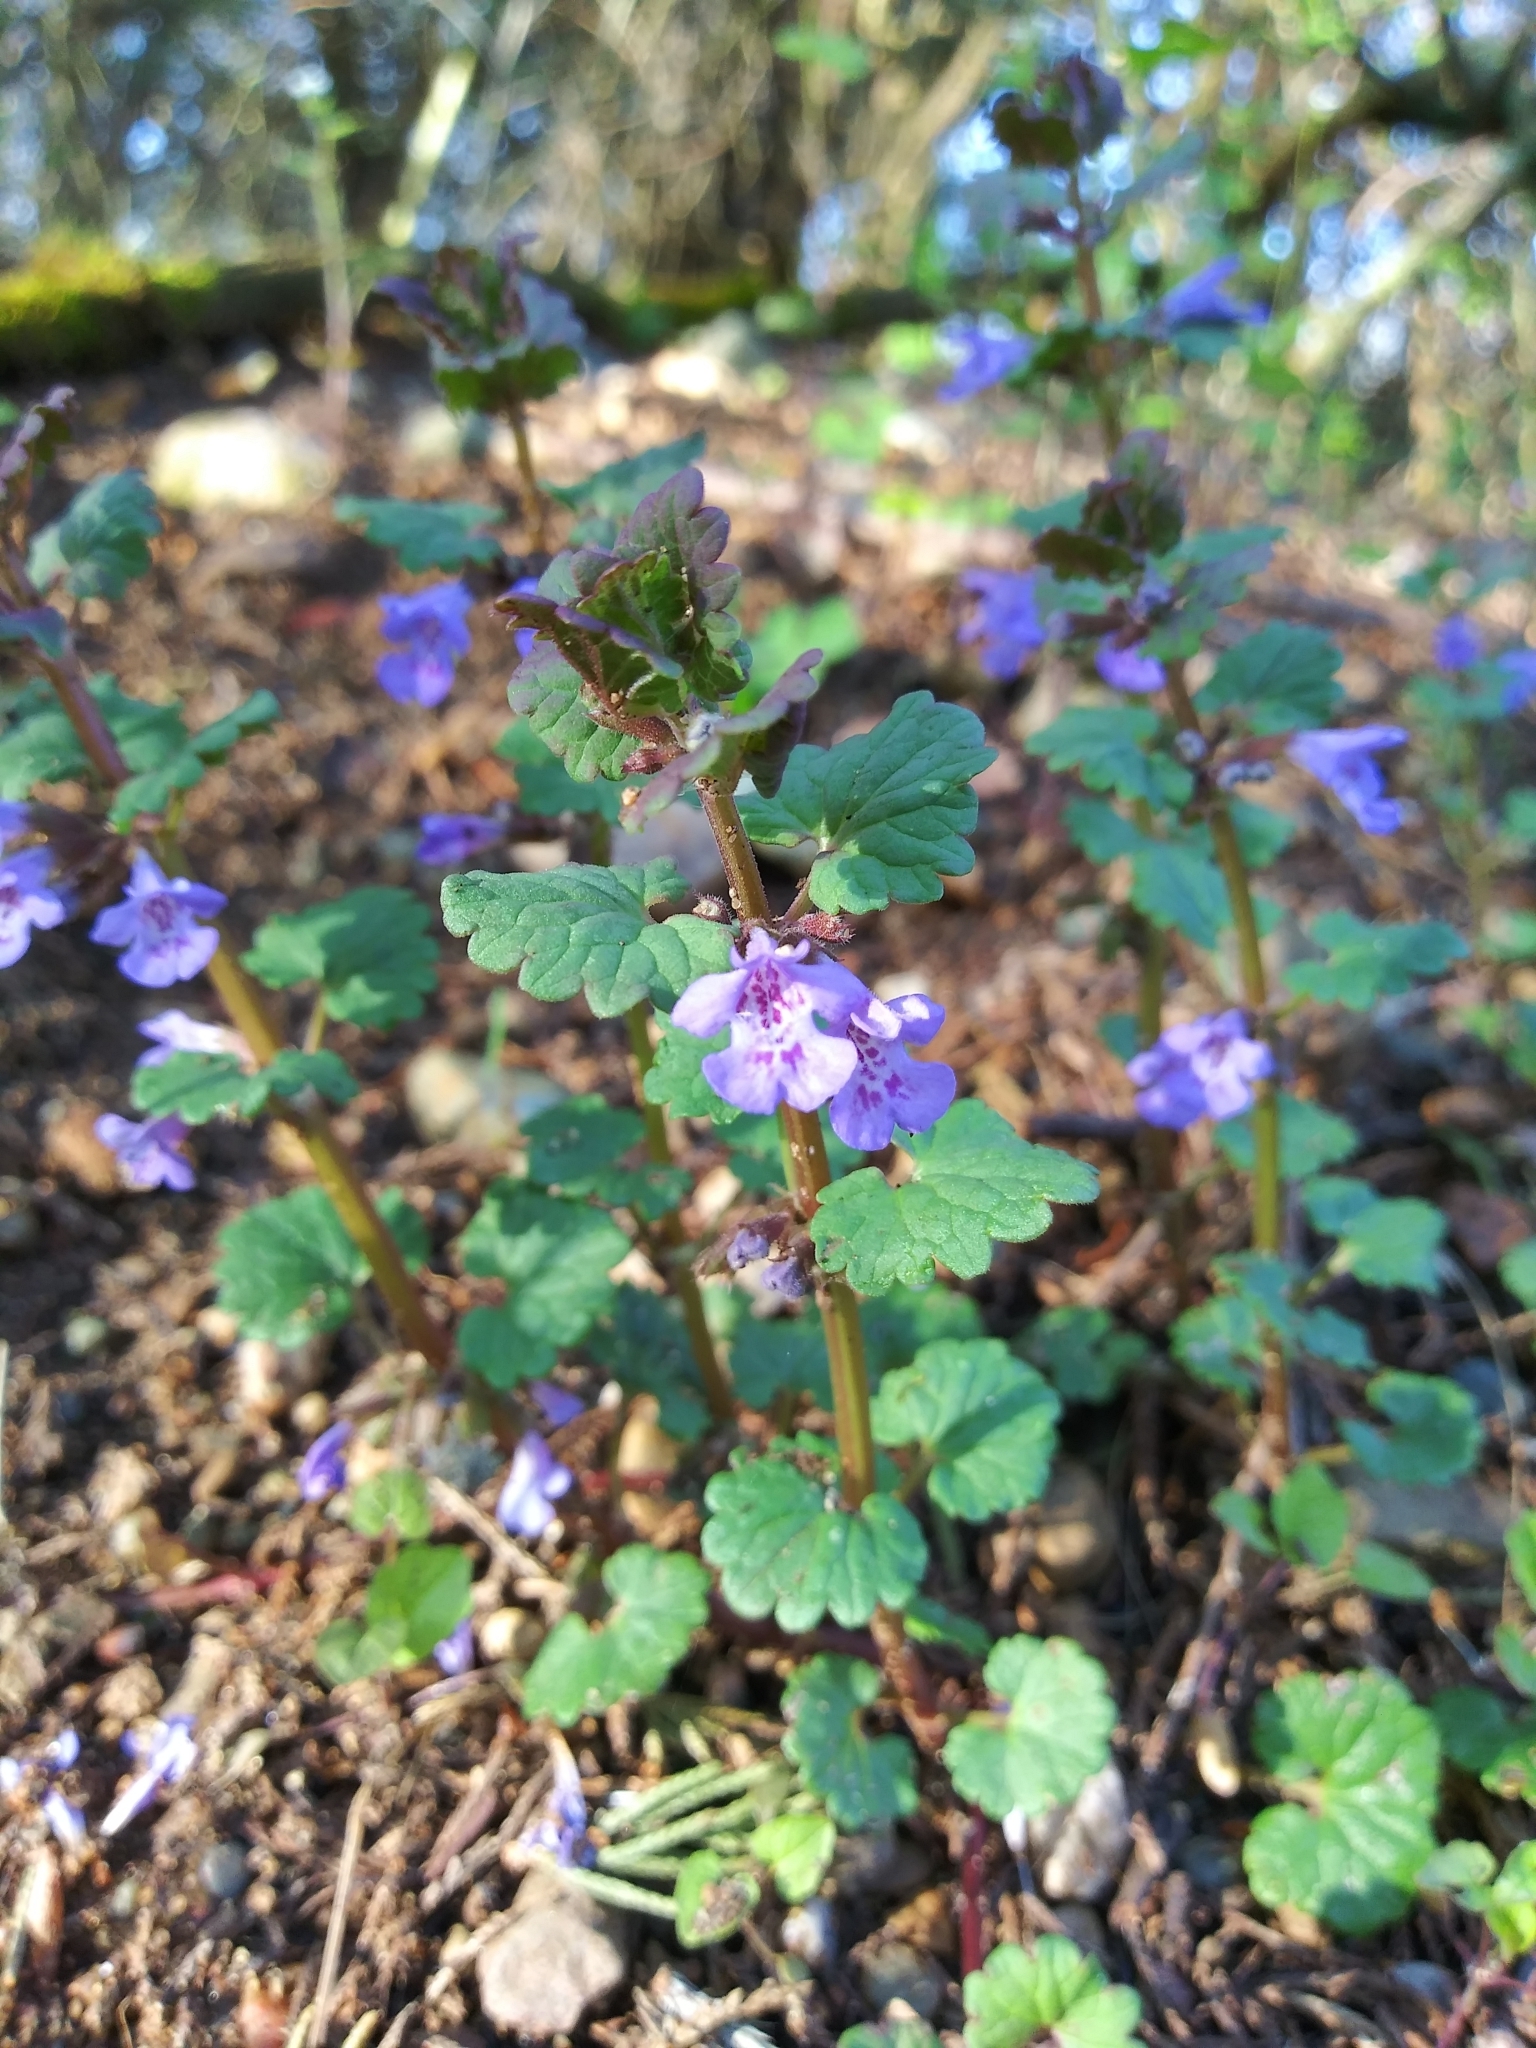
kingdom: Plantae
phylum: Tracheophyta
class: Magnoliopsida
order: Lamiales
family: Lamiaceae
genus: Glechoma
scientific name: Glechoma hederacea
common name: Ground ivy
